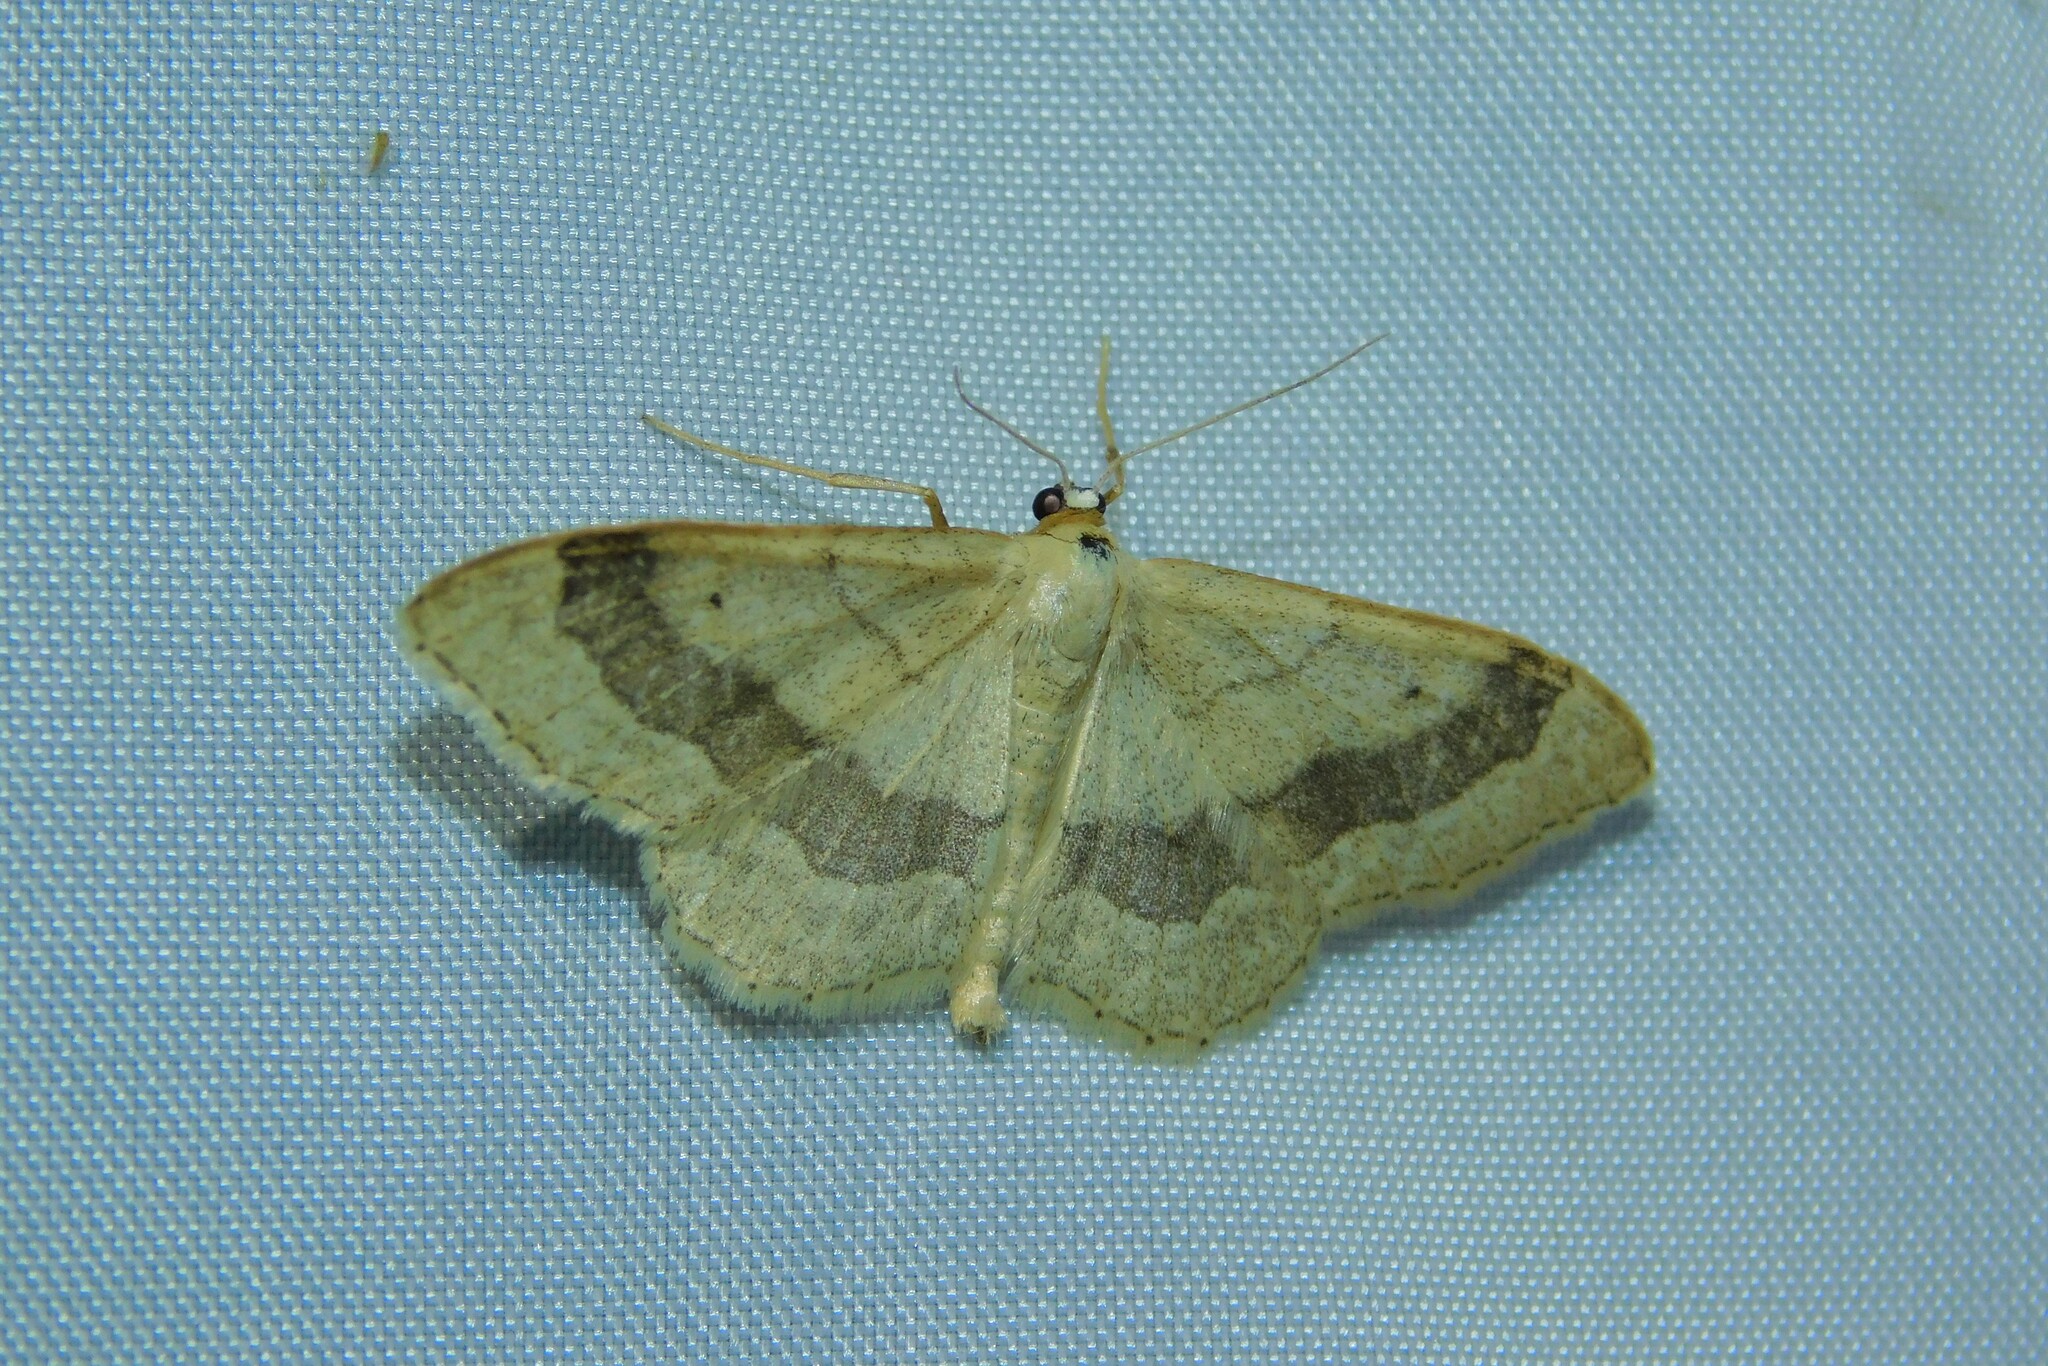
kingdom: Animalia
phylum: Arthropoda
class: Insecta
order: Lepidoptera
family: Geometridae
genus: Idaea
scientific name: Idaea aversata
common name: Riband wave
